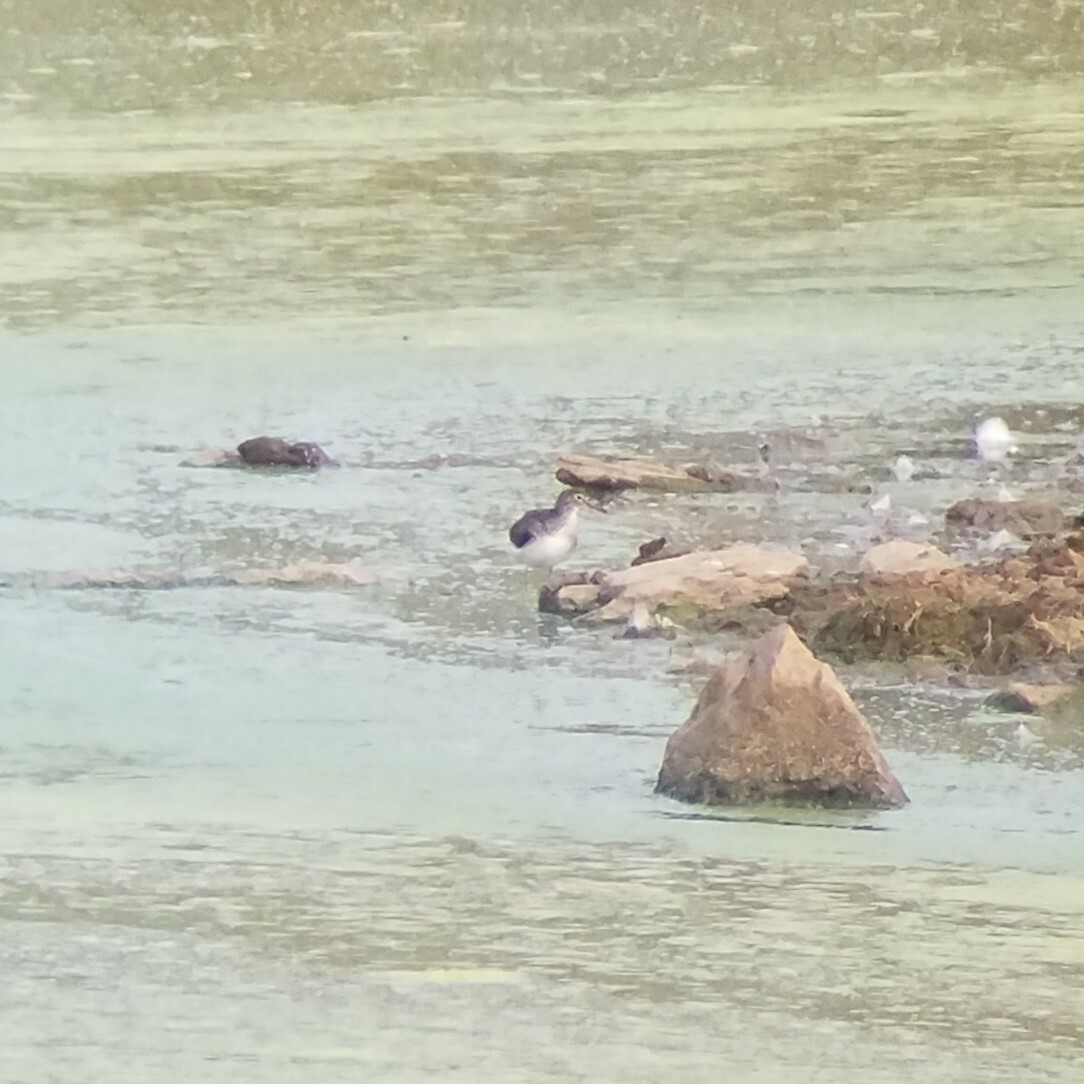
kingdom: Animalia
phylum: Chordata
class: Aves
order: Charadriiformes
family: Scolopacidae
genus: Tringa
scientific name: Tringa solitaria
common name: Solitary sandpiper
